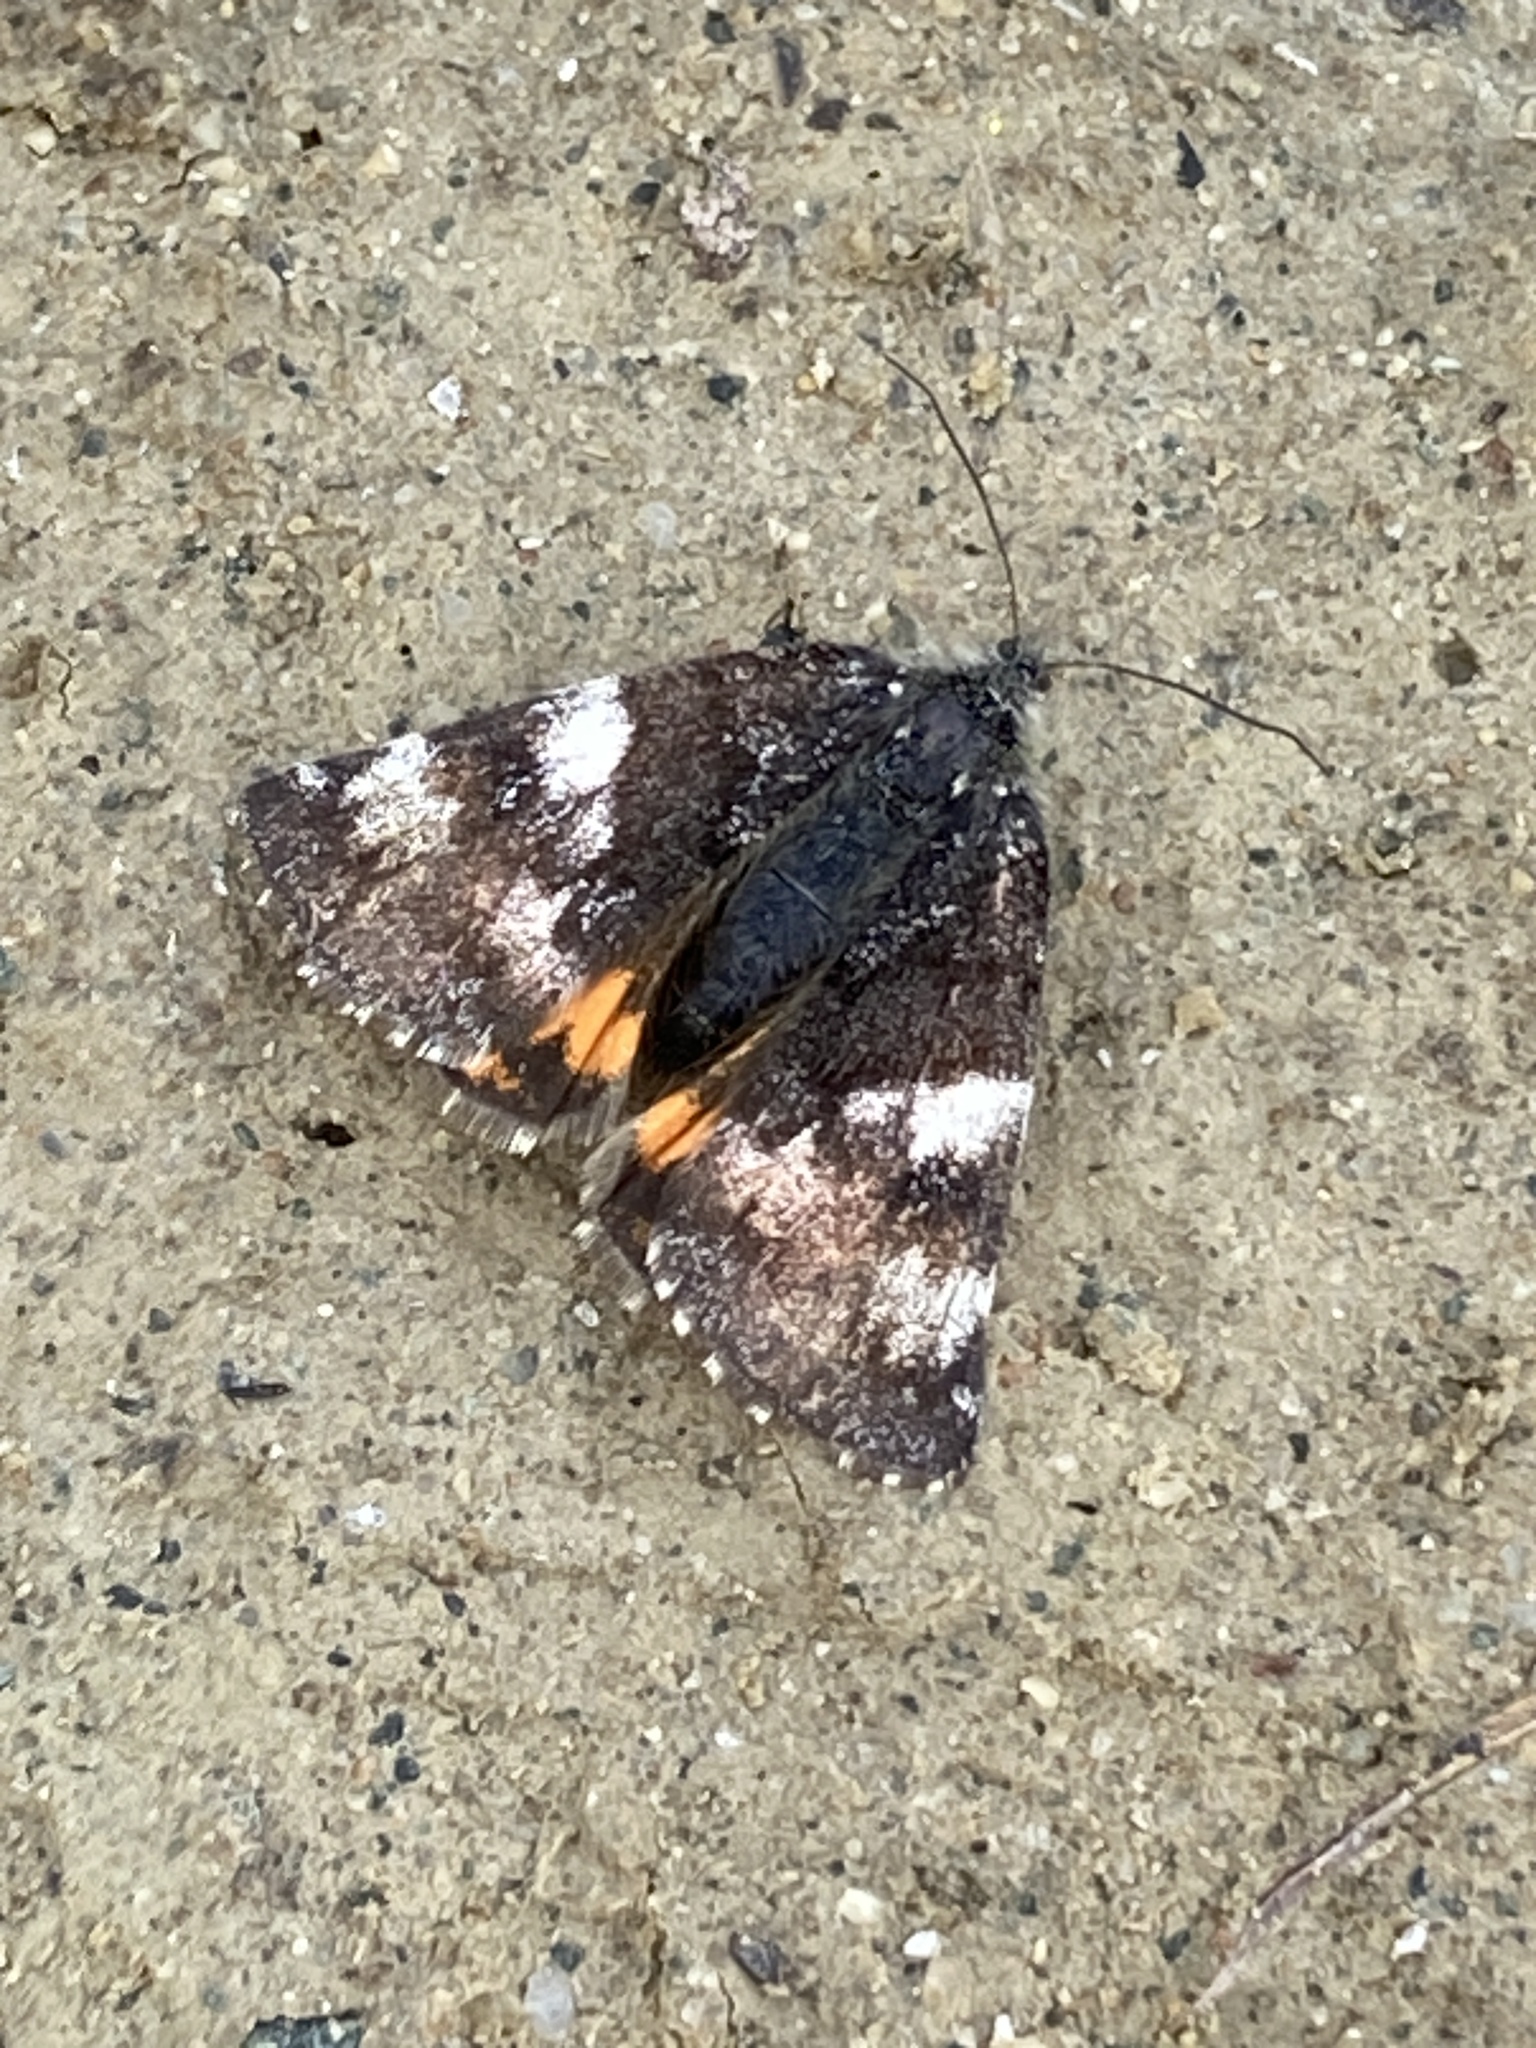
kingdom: Animalia
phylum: Arthropoda
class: Insecta
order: Lepidoptera
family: Geometridae
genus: Archiearis
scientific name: Archiearis parthenias
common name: Orange underwing
